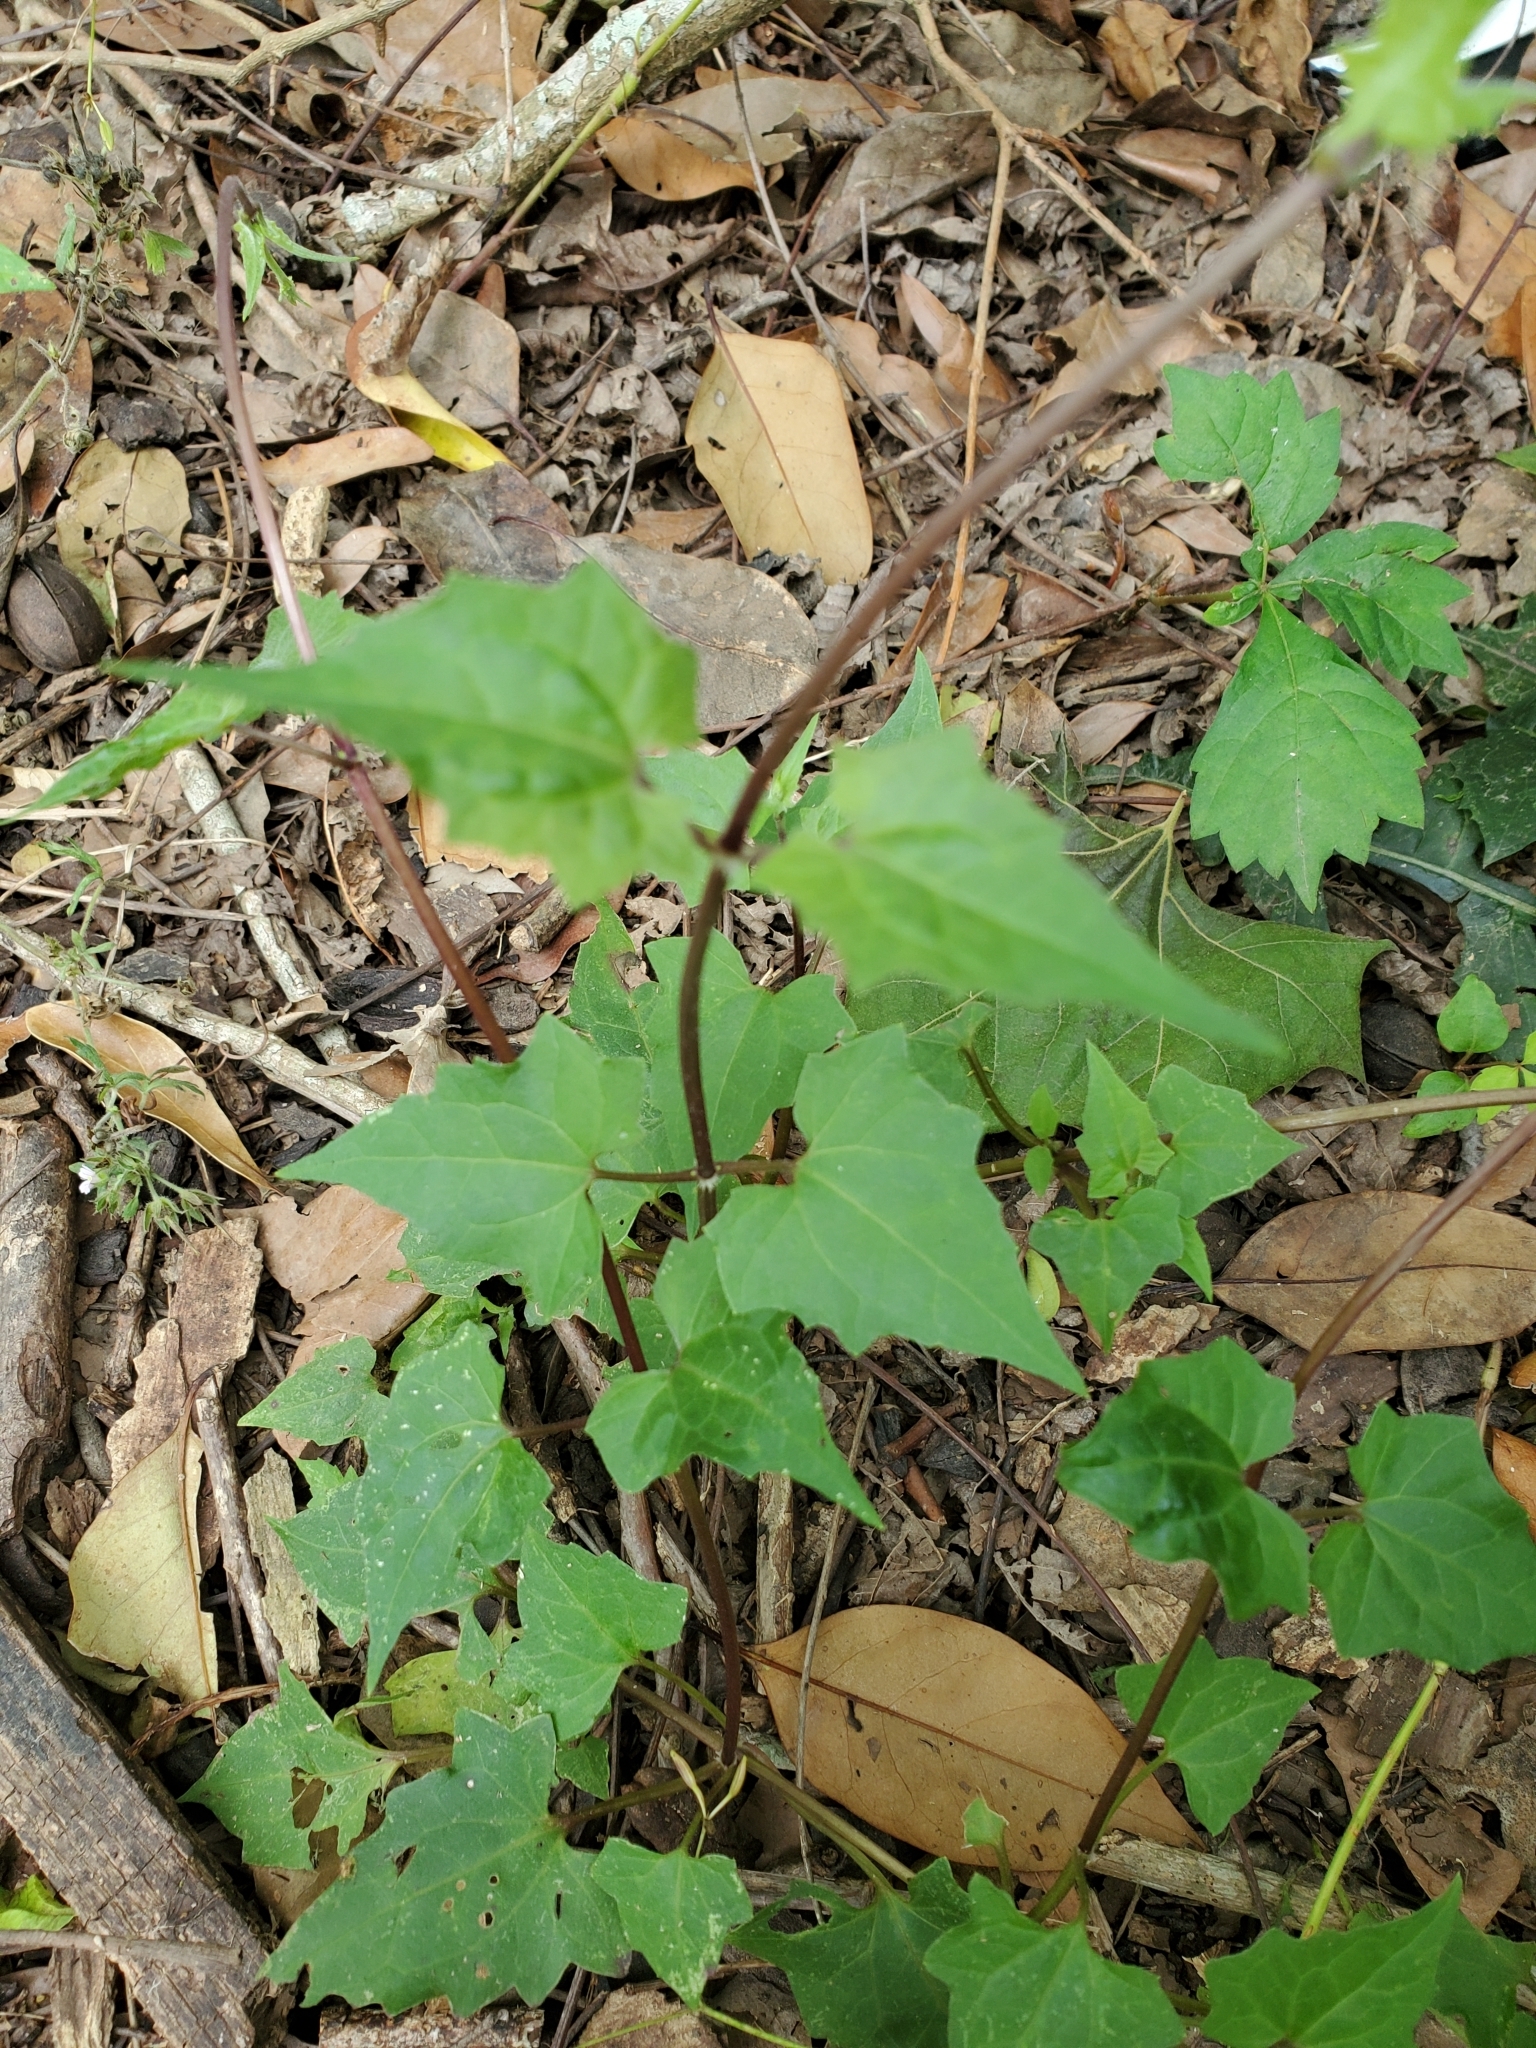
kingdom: Plantae
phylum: Tracheophyta
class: Magnoliopsida
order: Asterales
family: Asteraceae
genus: Mikania
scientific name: Mikania scandens
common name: Climbing hempvine
